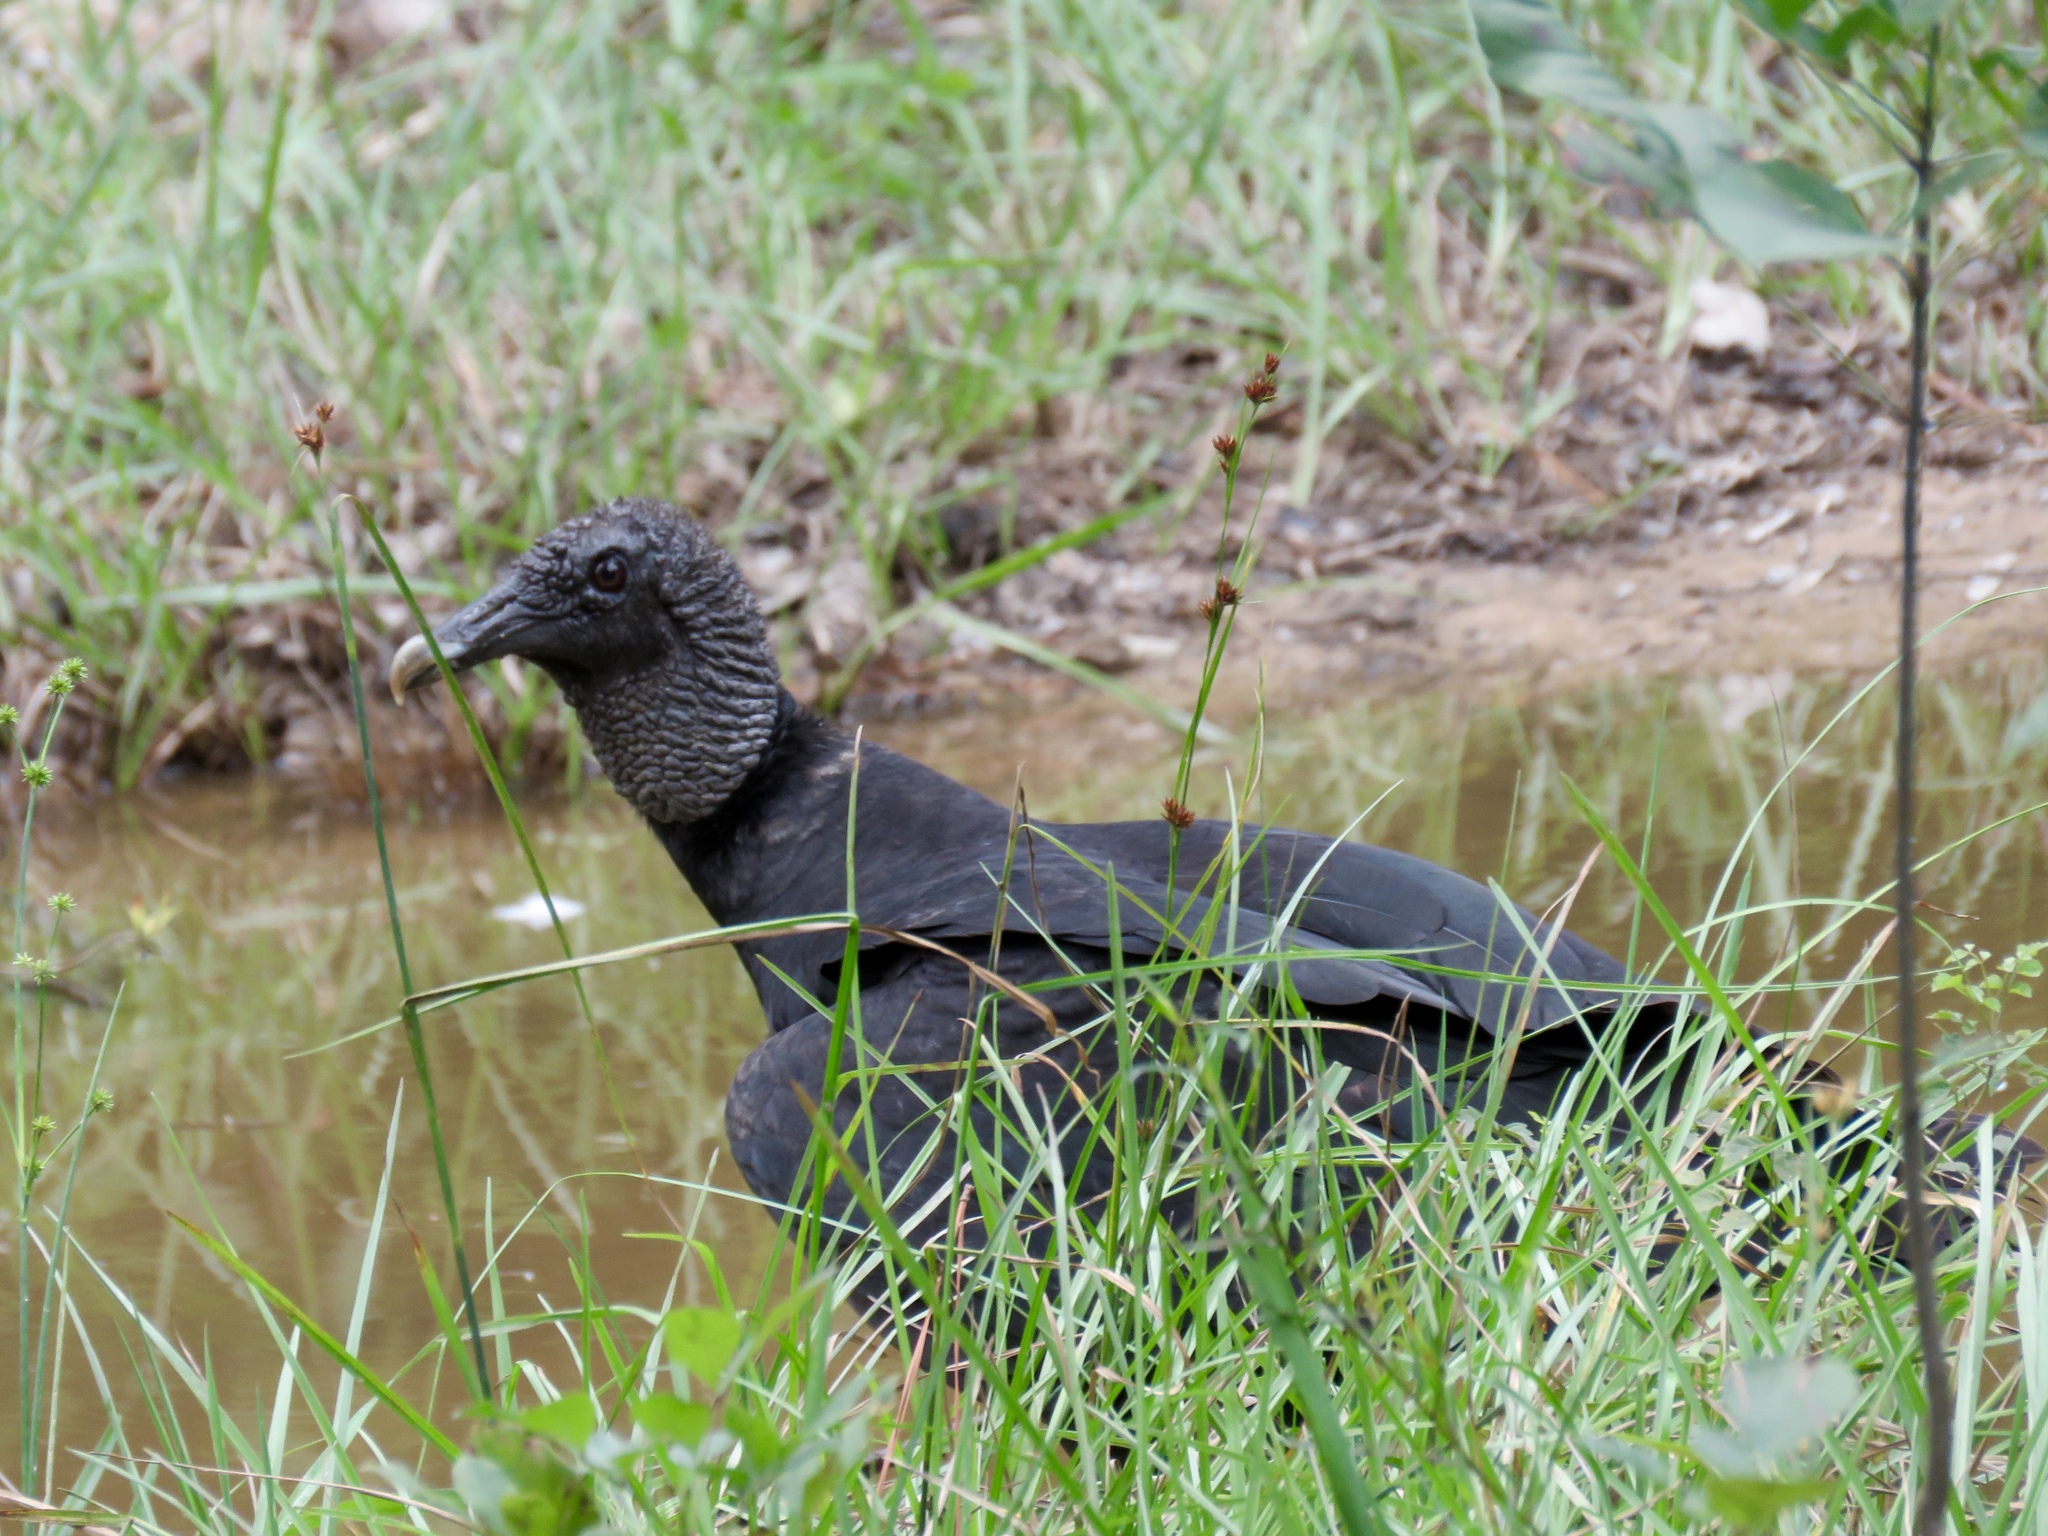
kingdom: Animalia
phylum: Chordata
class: Aves
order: Accipitriformes
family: Cathartidae
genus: Coragyps
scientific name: Coragyps atratus
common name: Black vulture
